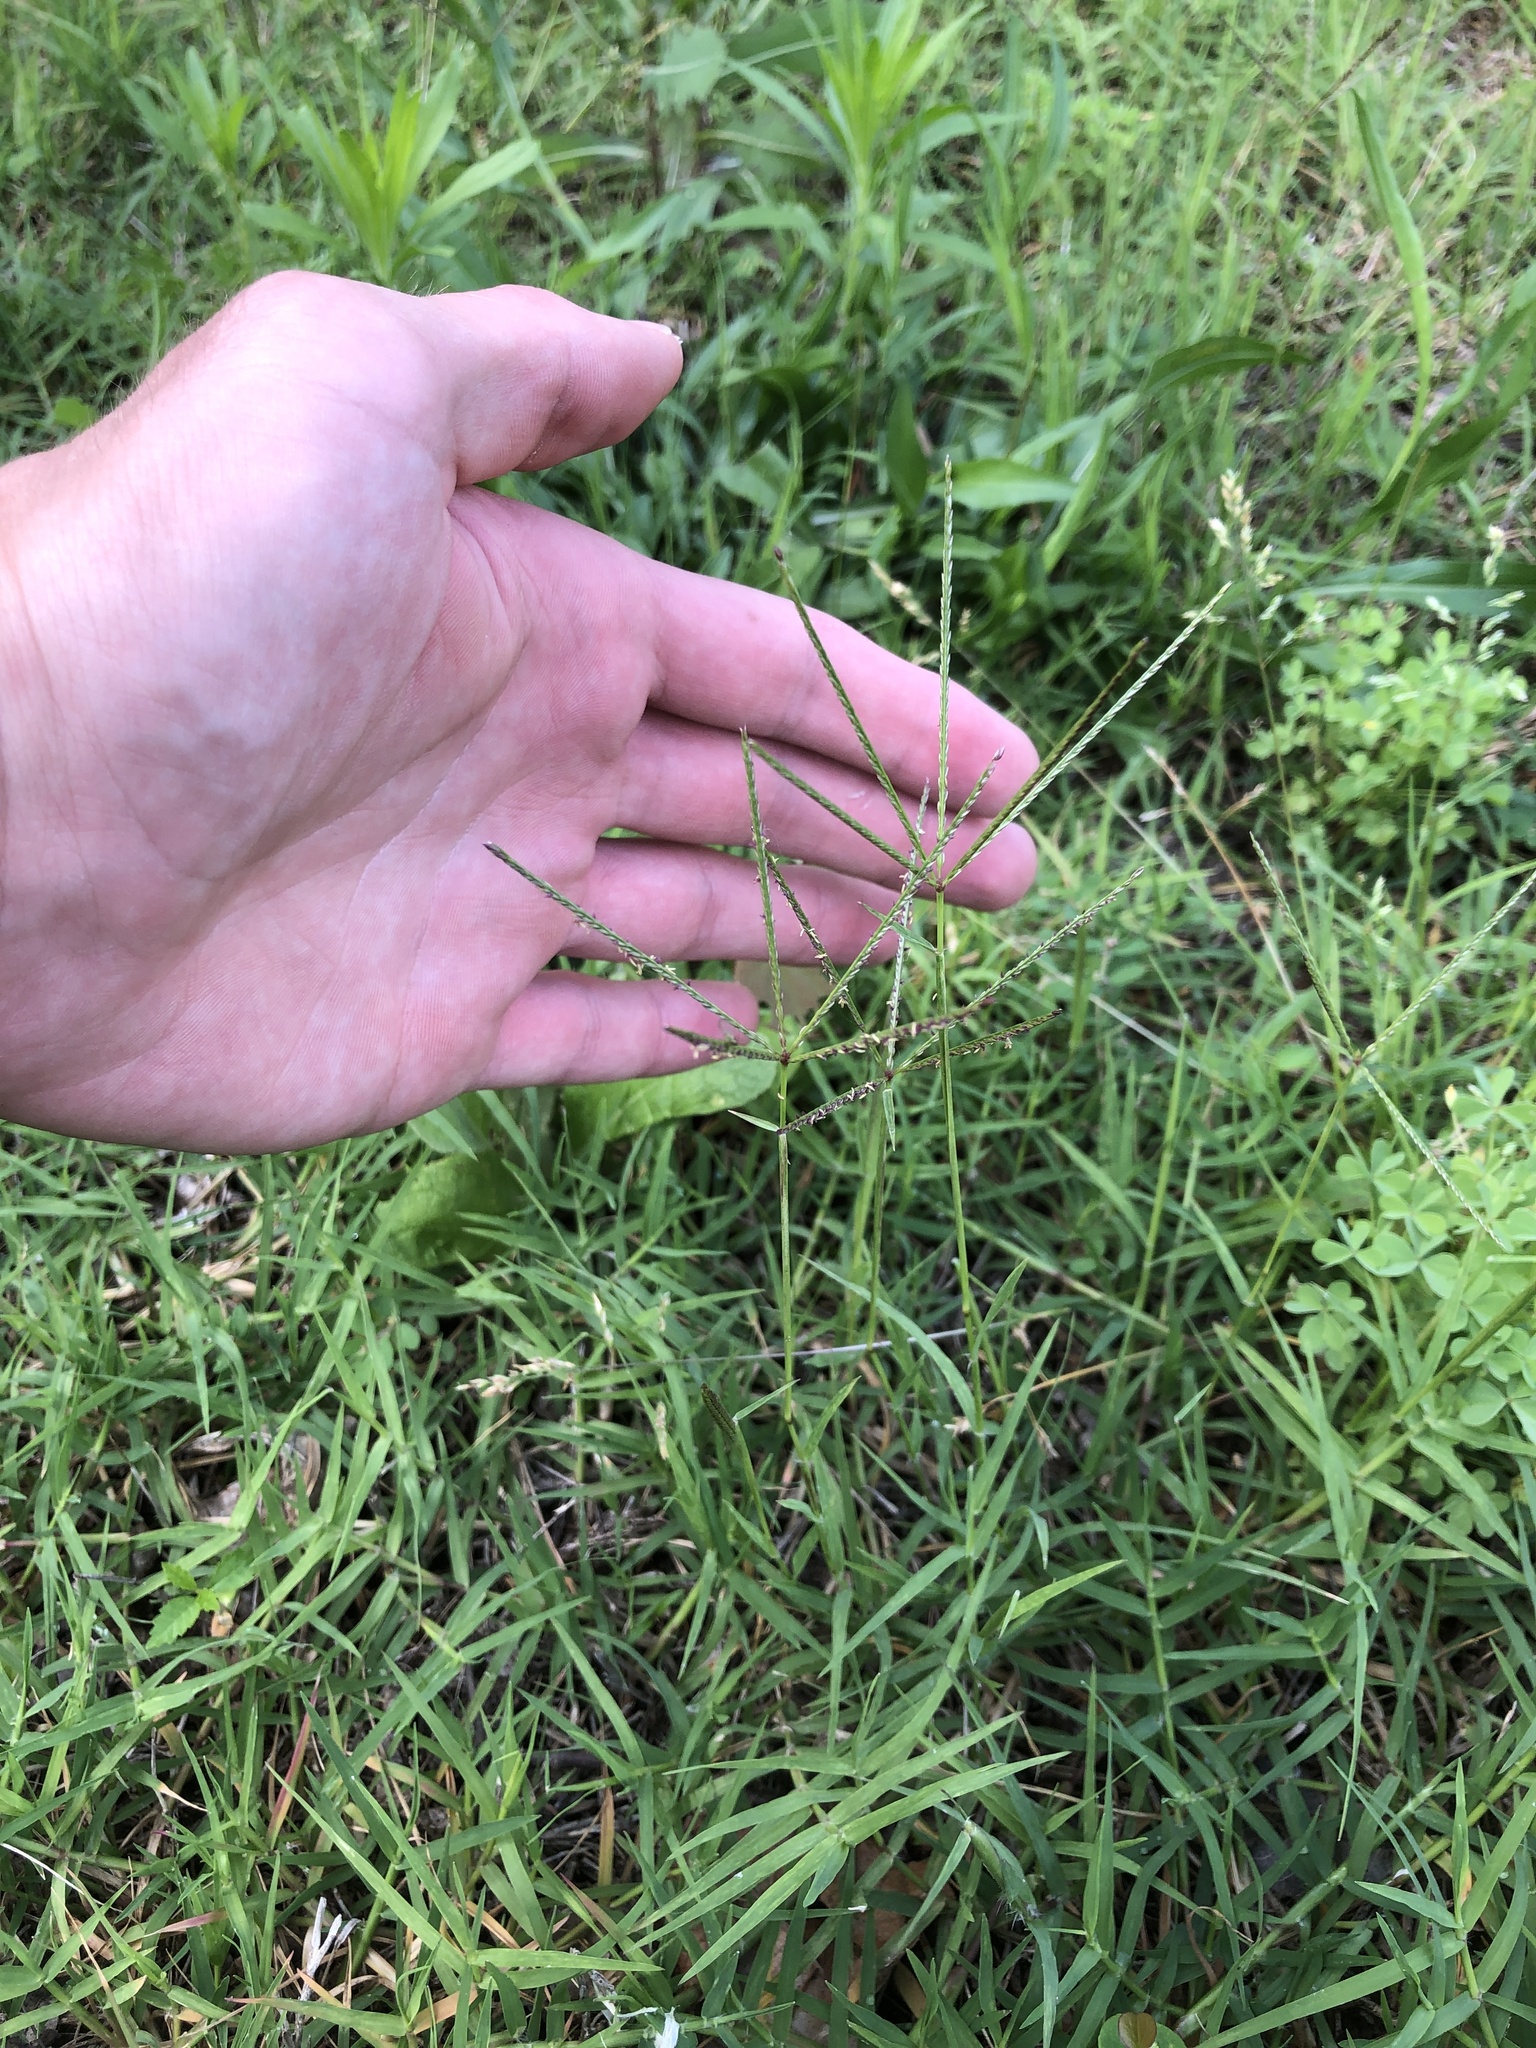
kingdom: Plantae
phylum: Tracheophyta
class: Liliopsida
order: Poales
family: Poaceae
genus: Cynodon
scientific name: Cynodon dactylon
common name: Bermuda grass
